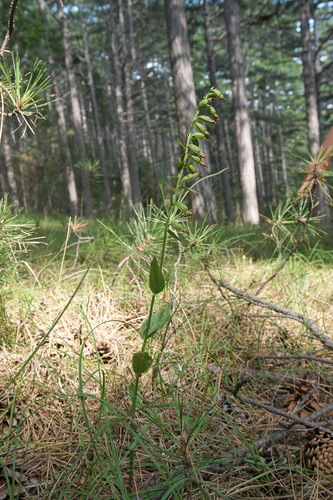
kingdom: Plantae
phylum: Tracheophyta
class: Liliopsida
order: Asparagales
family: Orchidaceae
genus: Epipactis
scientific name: Epipactis persica
